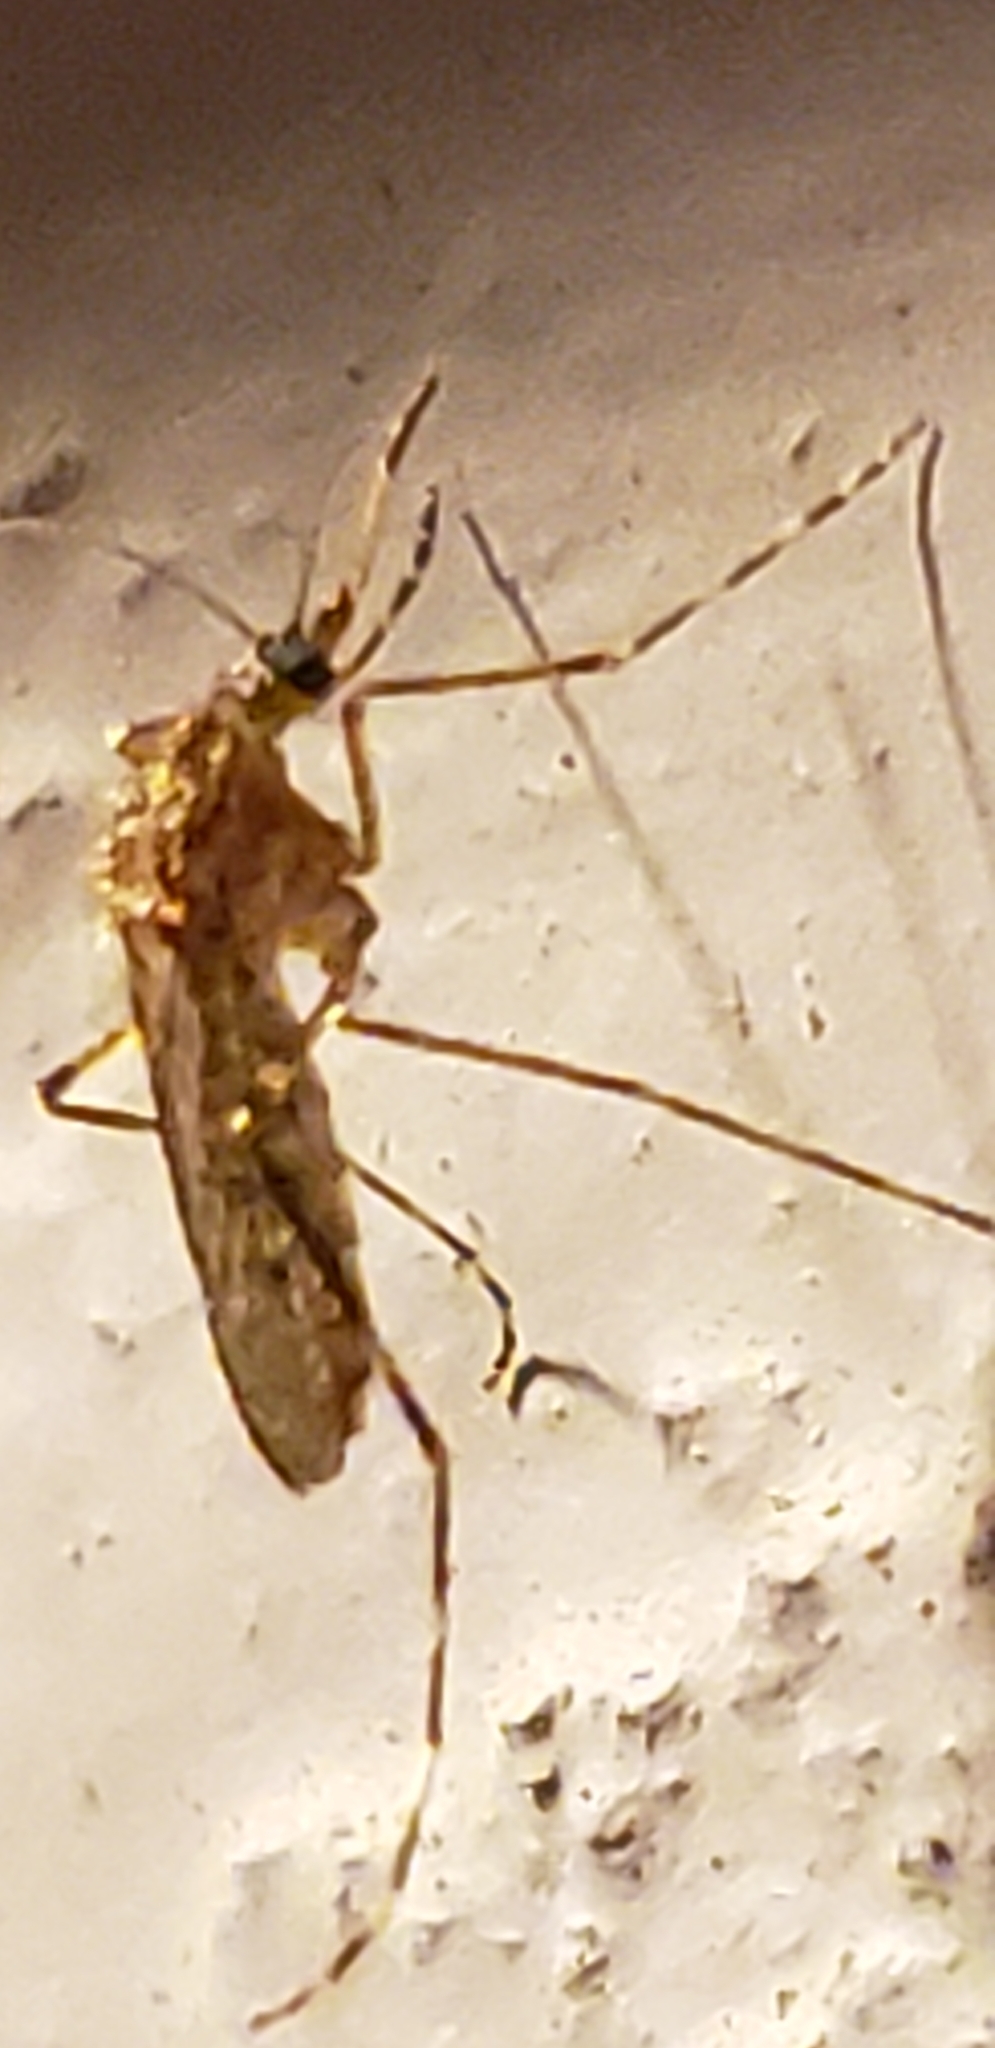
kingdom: Animalia
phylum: Arthropoda
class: Insecta
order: Diptera
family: Culicidae
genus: Coquillettidia
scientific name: Coquillettidia perturbans
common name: Cattail mosquito
